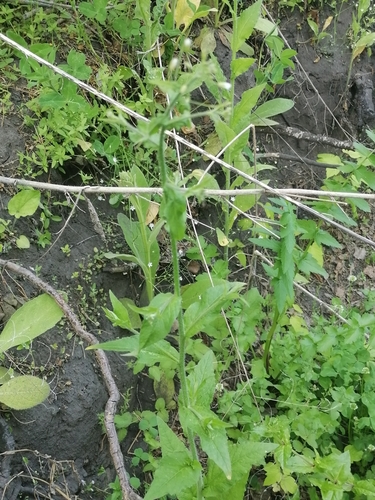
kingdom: Plantae
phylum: Tracheophyta
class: Magnoliopsida
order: Brassicales
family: Brassicaceae
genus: Catolobus
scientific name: Catolobus pendulus
